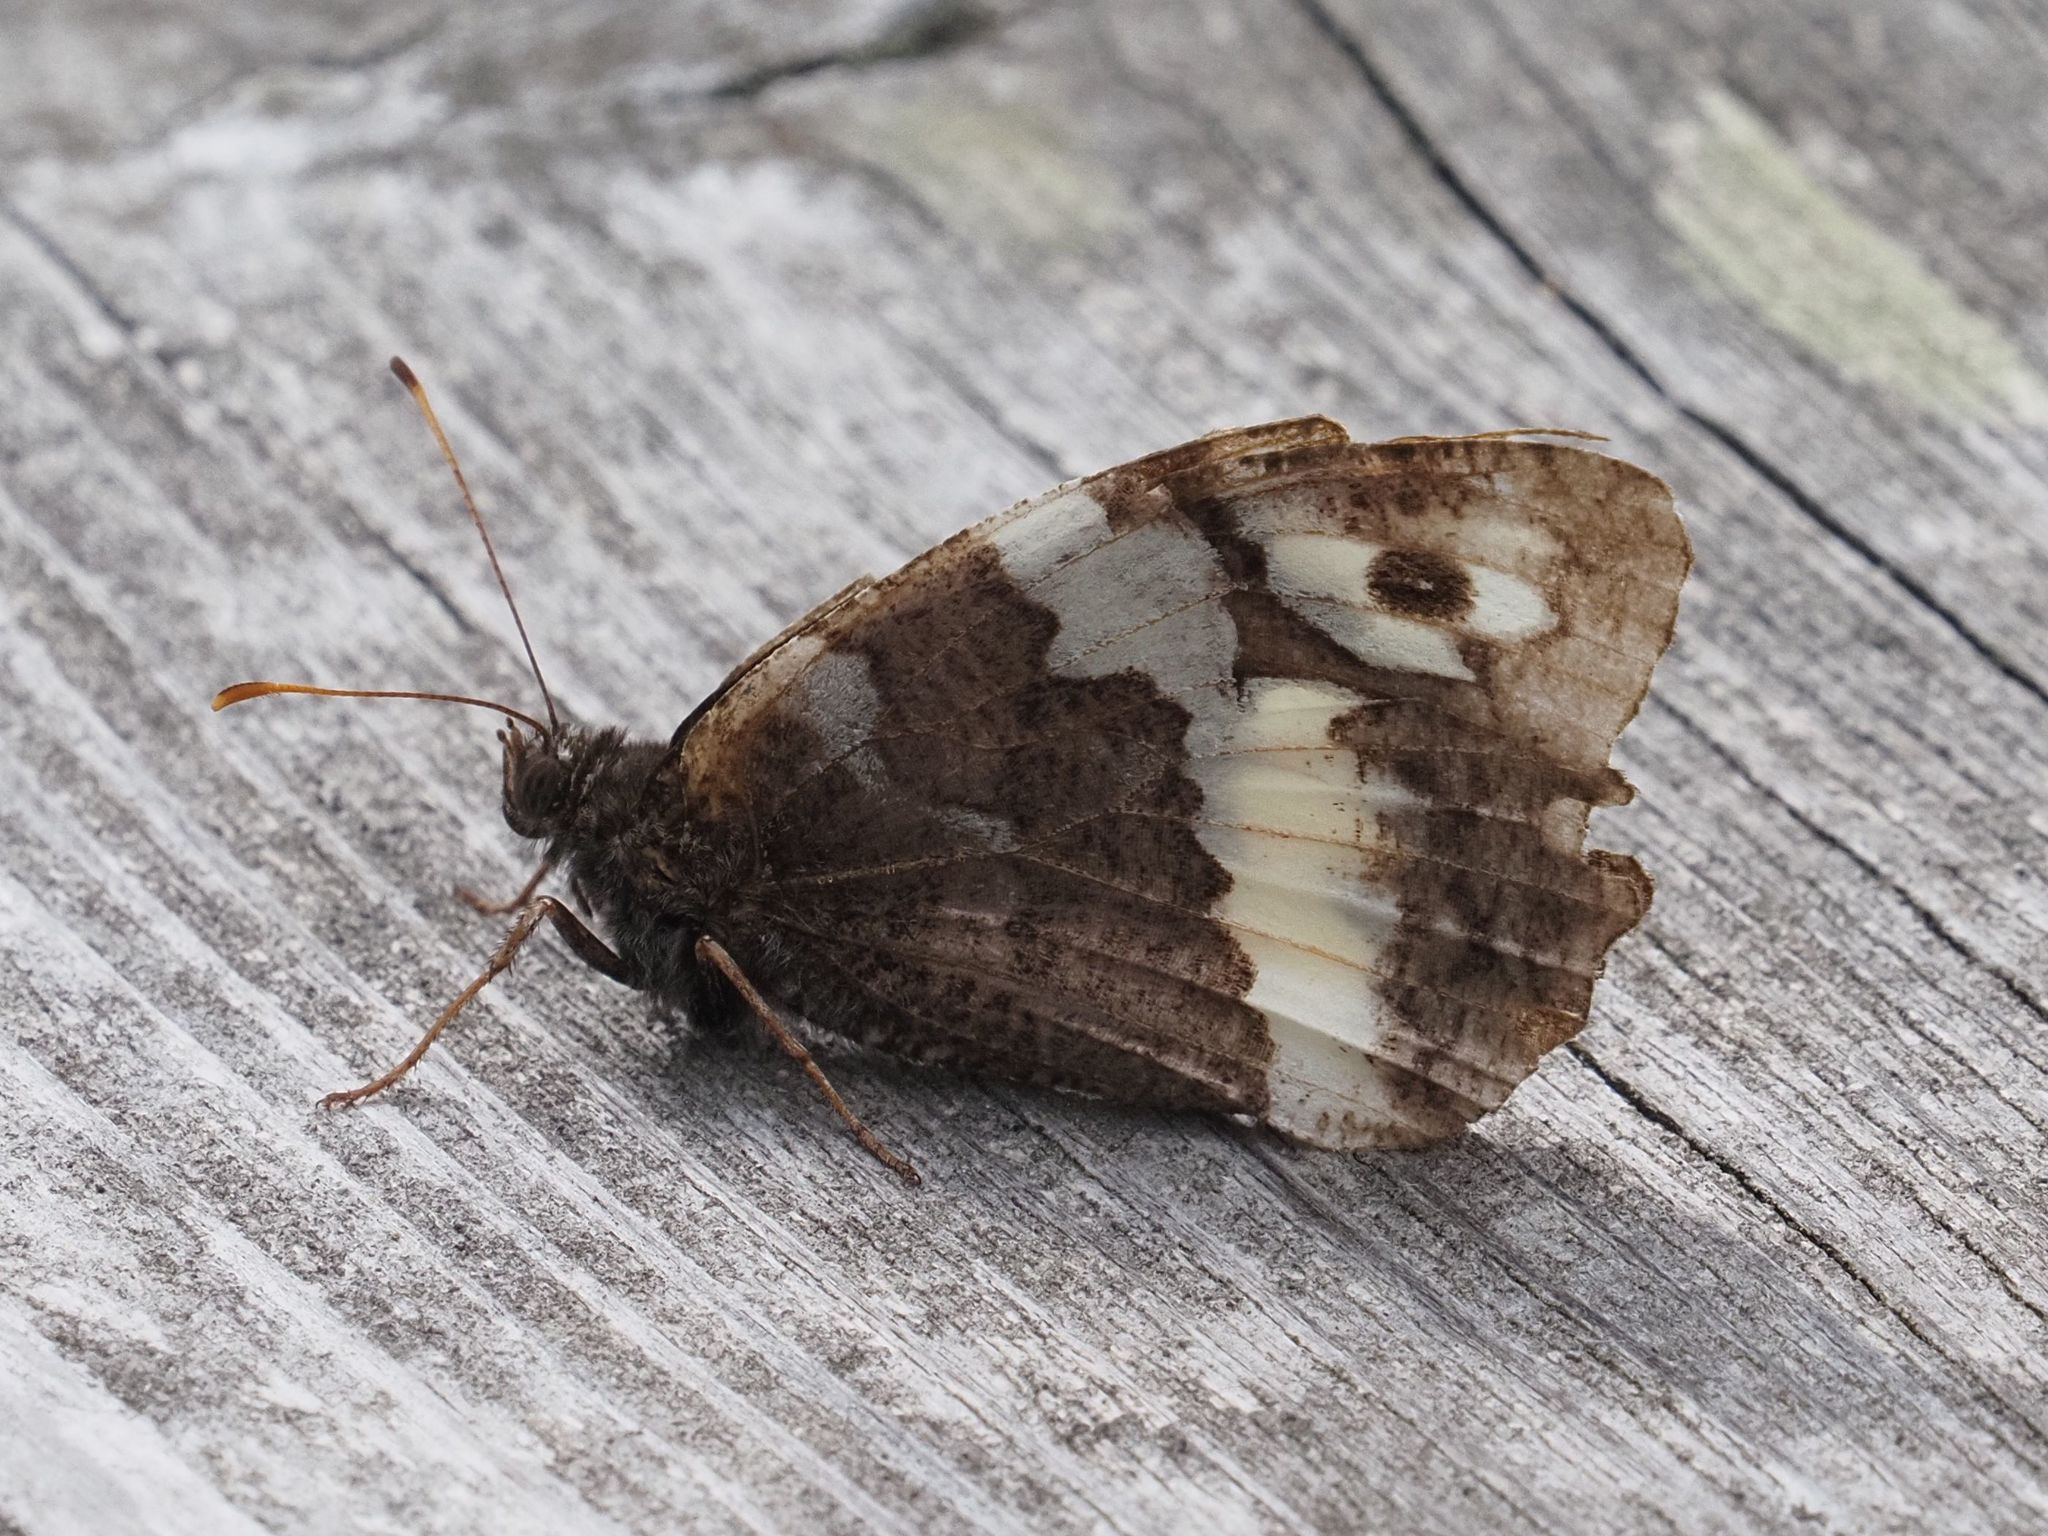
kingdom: Animalia
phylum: Arthropoda
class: Insecta
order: Lepidoptera
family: Lycaenidae
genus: Loweia
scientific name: Loweia tityrus
